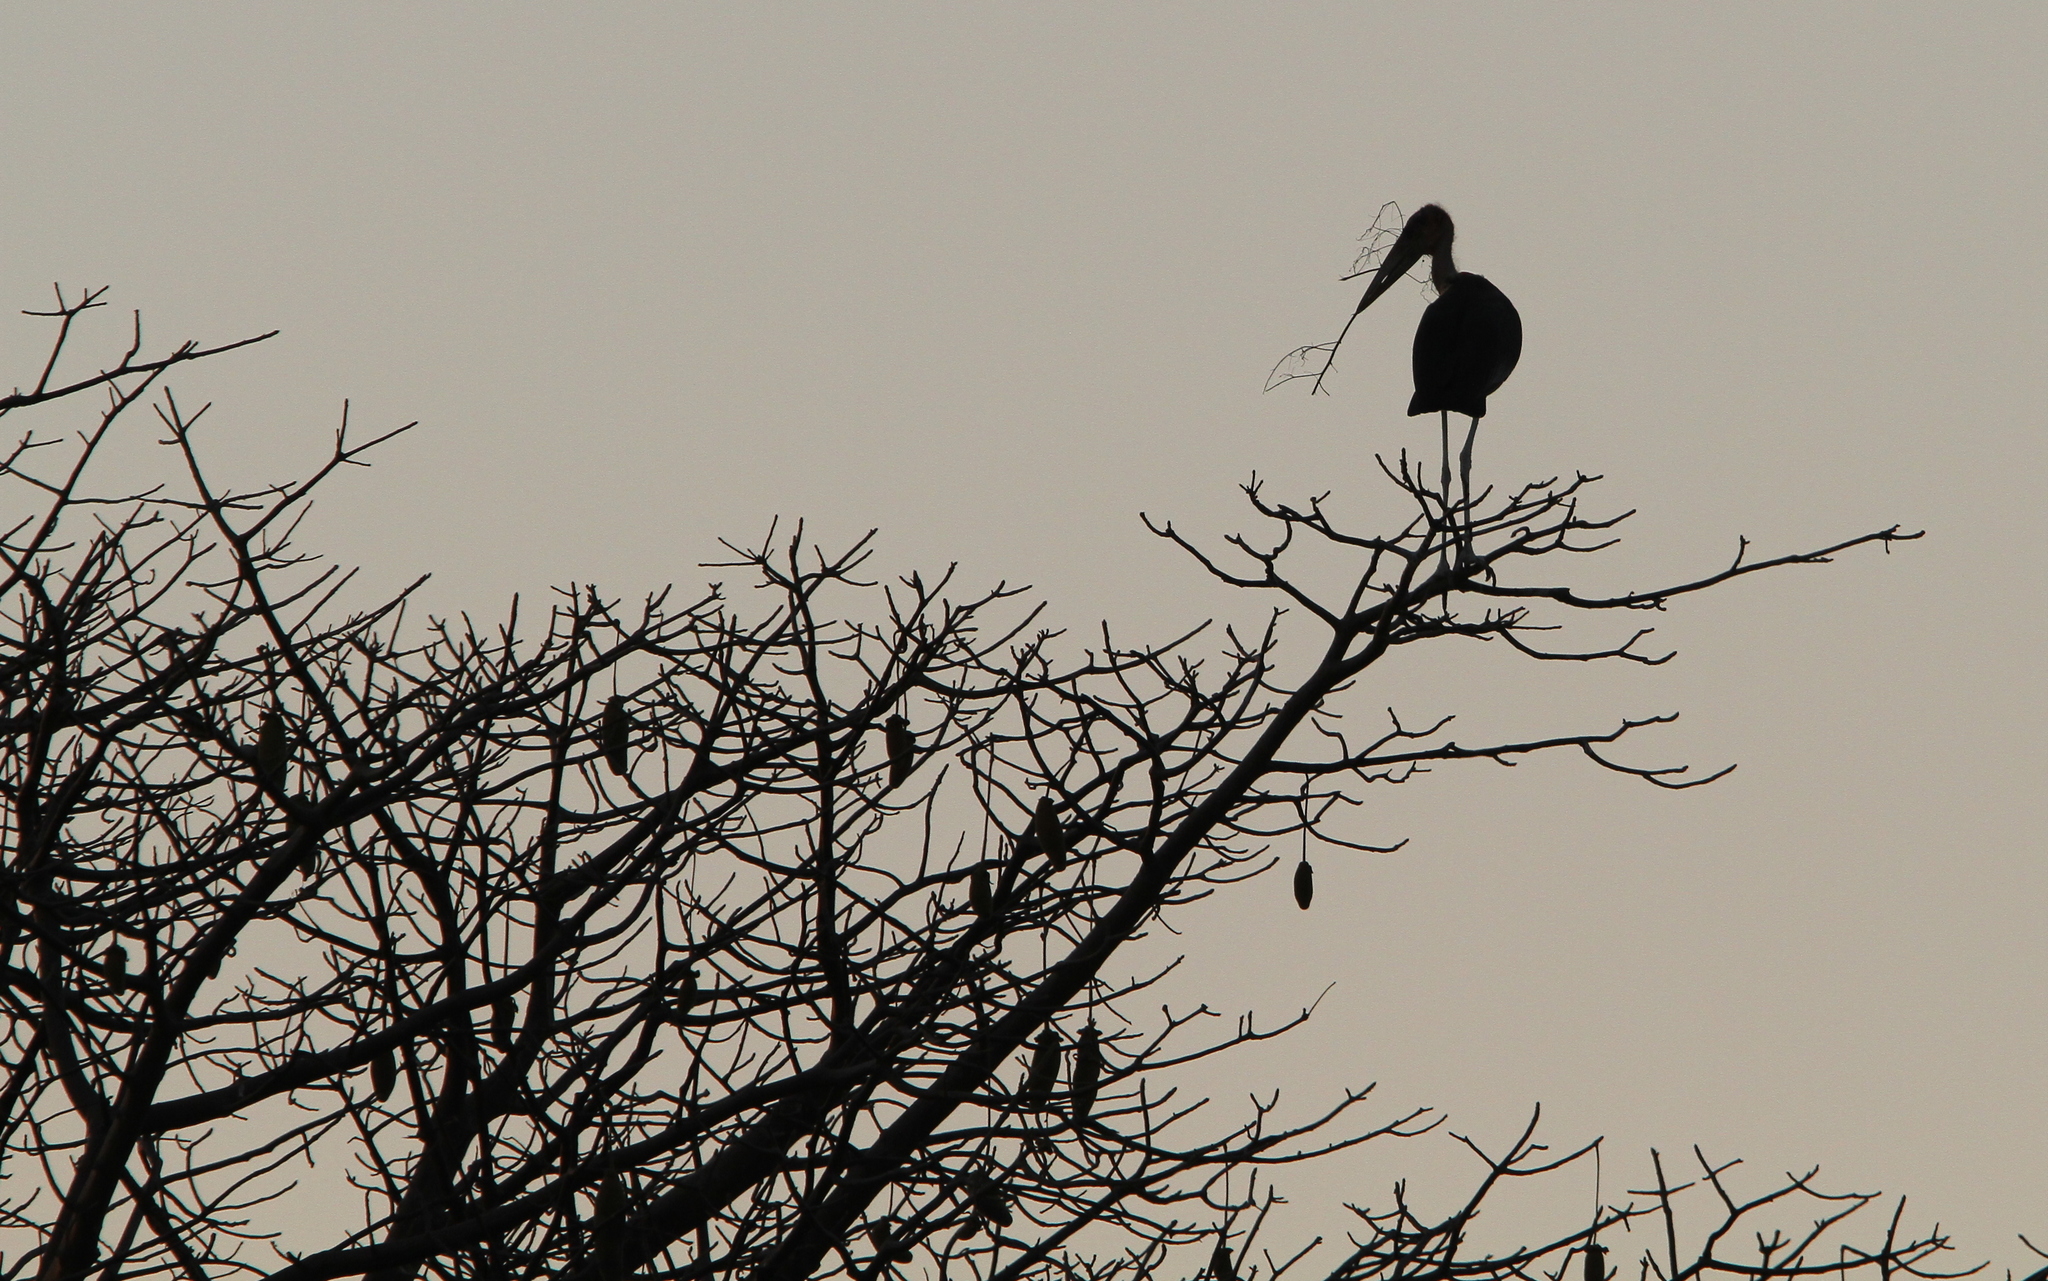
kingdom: Animalia
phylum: Chordata
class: Aves
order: Ciconiiformes
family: Ciconiidae
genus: Leptoptilos
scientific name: Leptoptilos crumenifer
